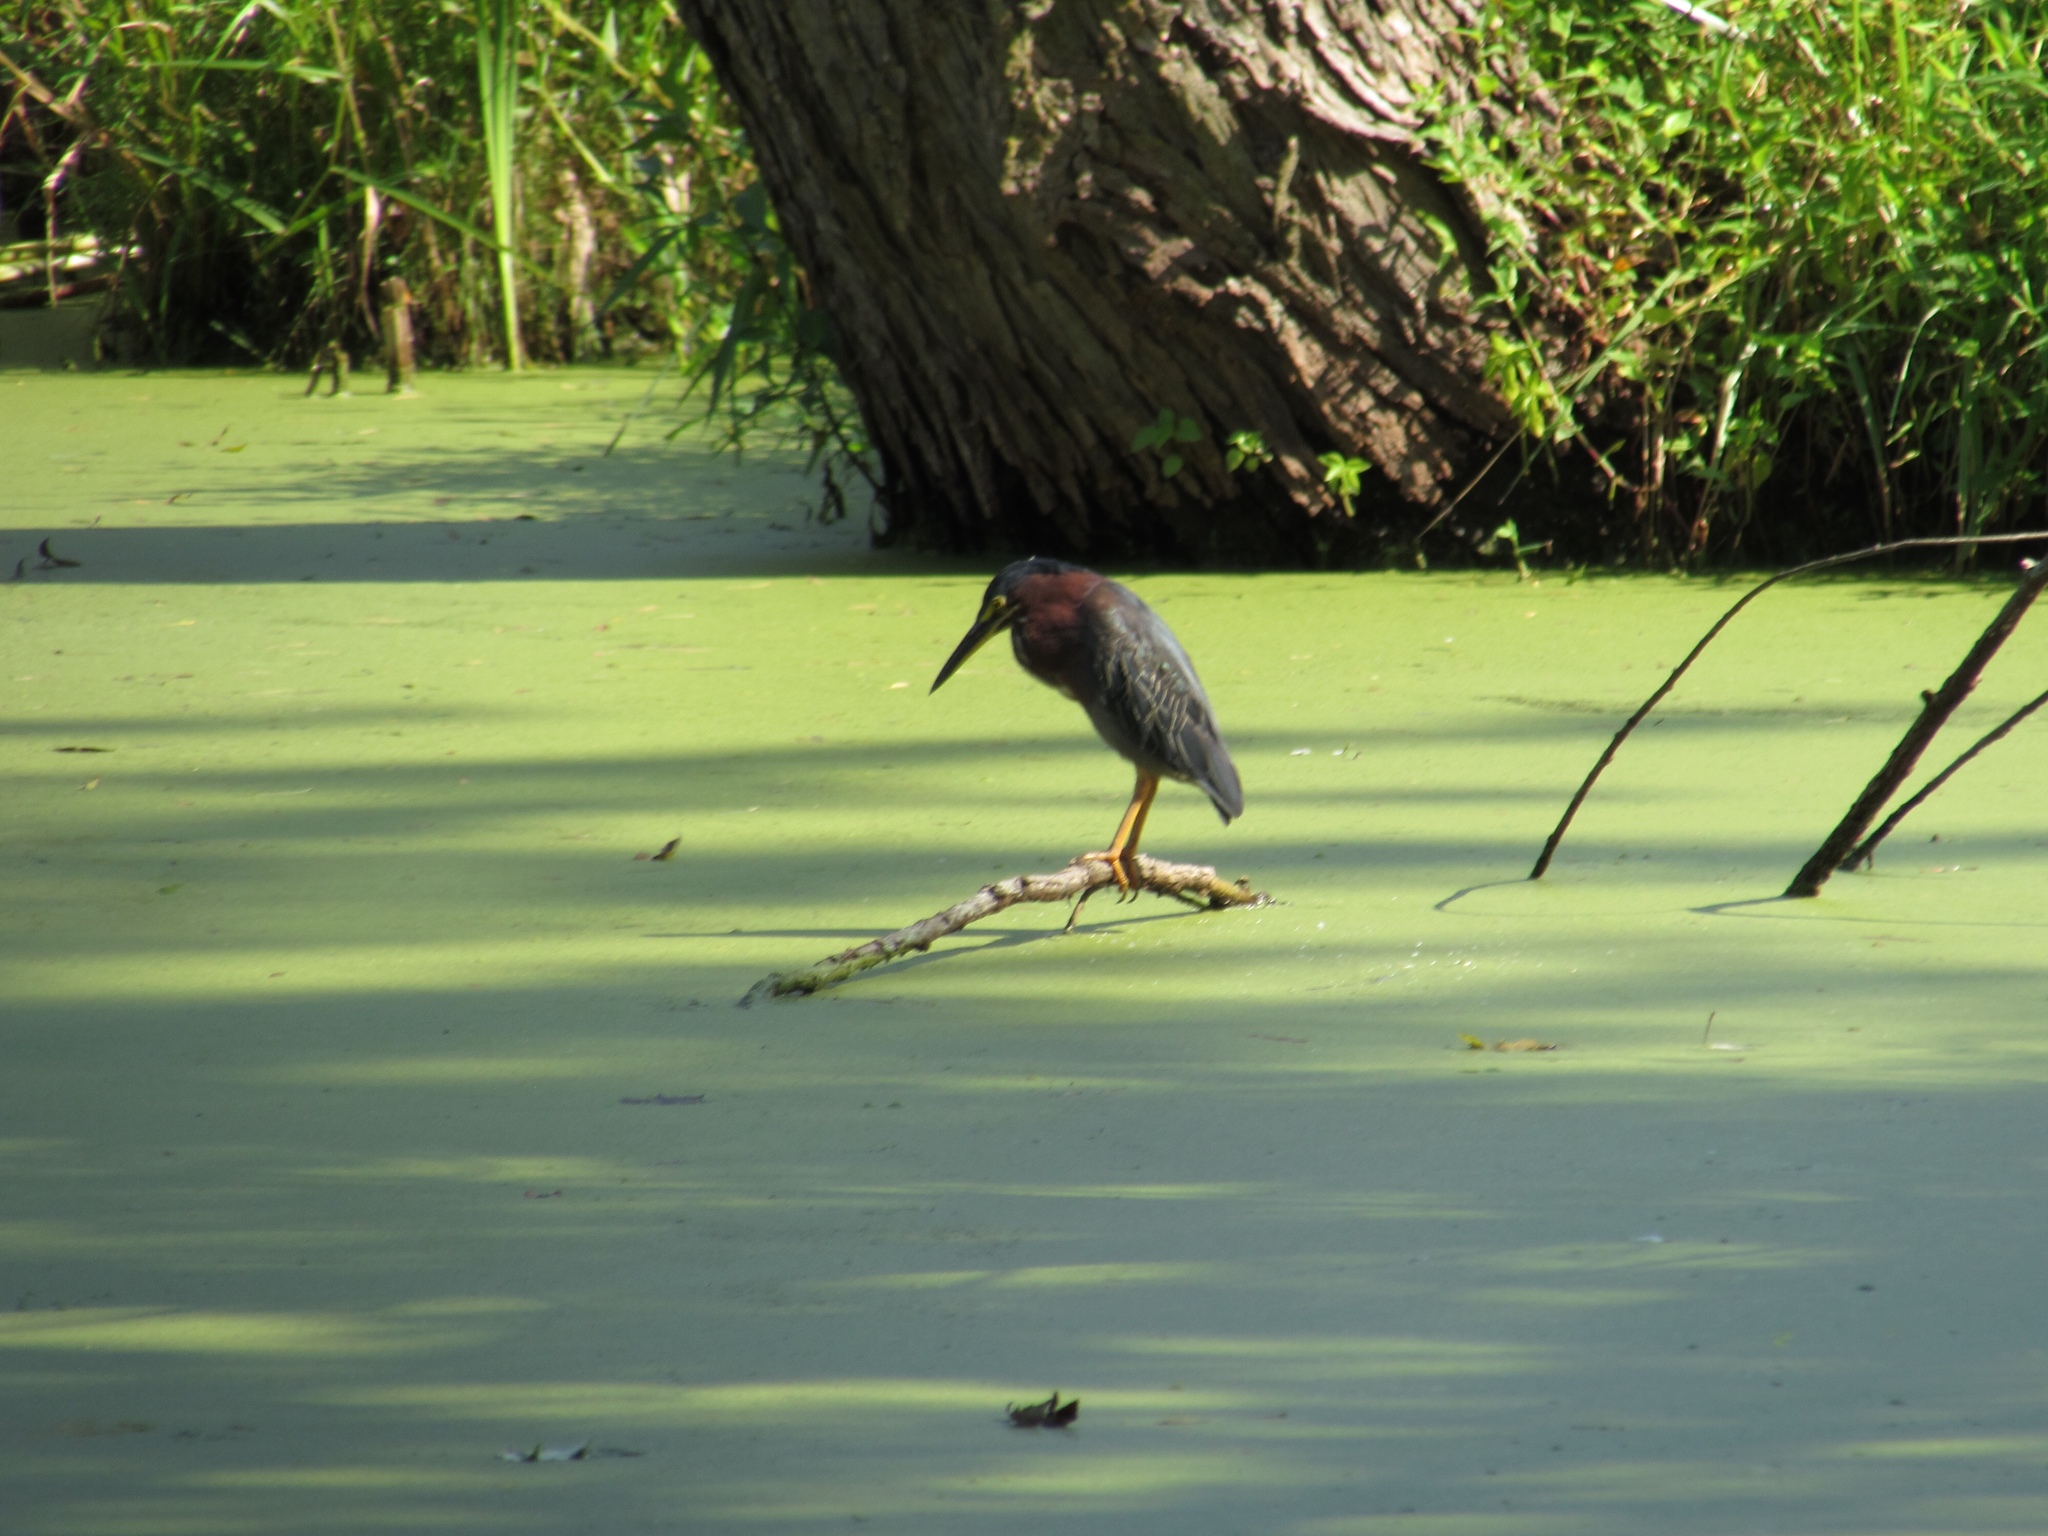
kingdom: Animalia
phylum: Chordata
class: Aves
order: Pelecaniformes
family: Ardeidae
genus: Butorides
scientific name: Butorides virescens
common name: Green heron
